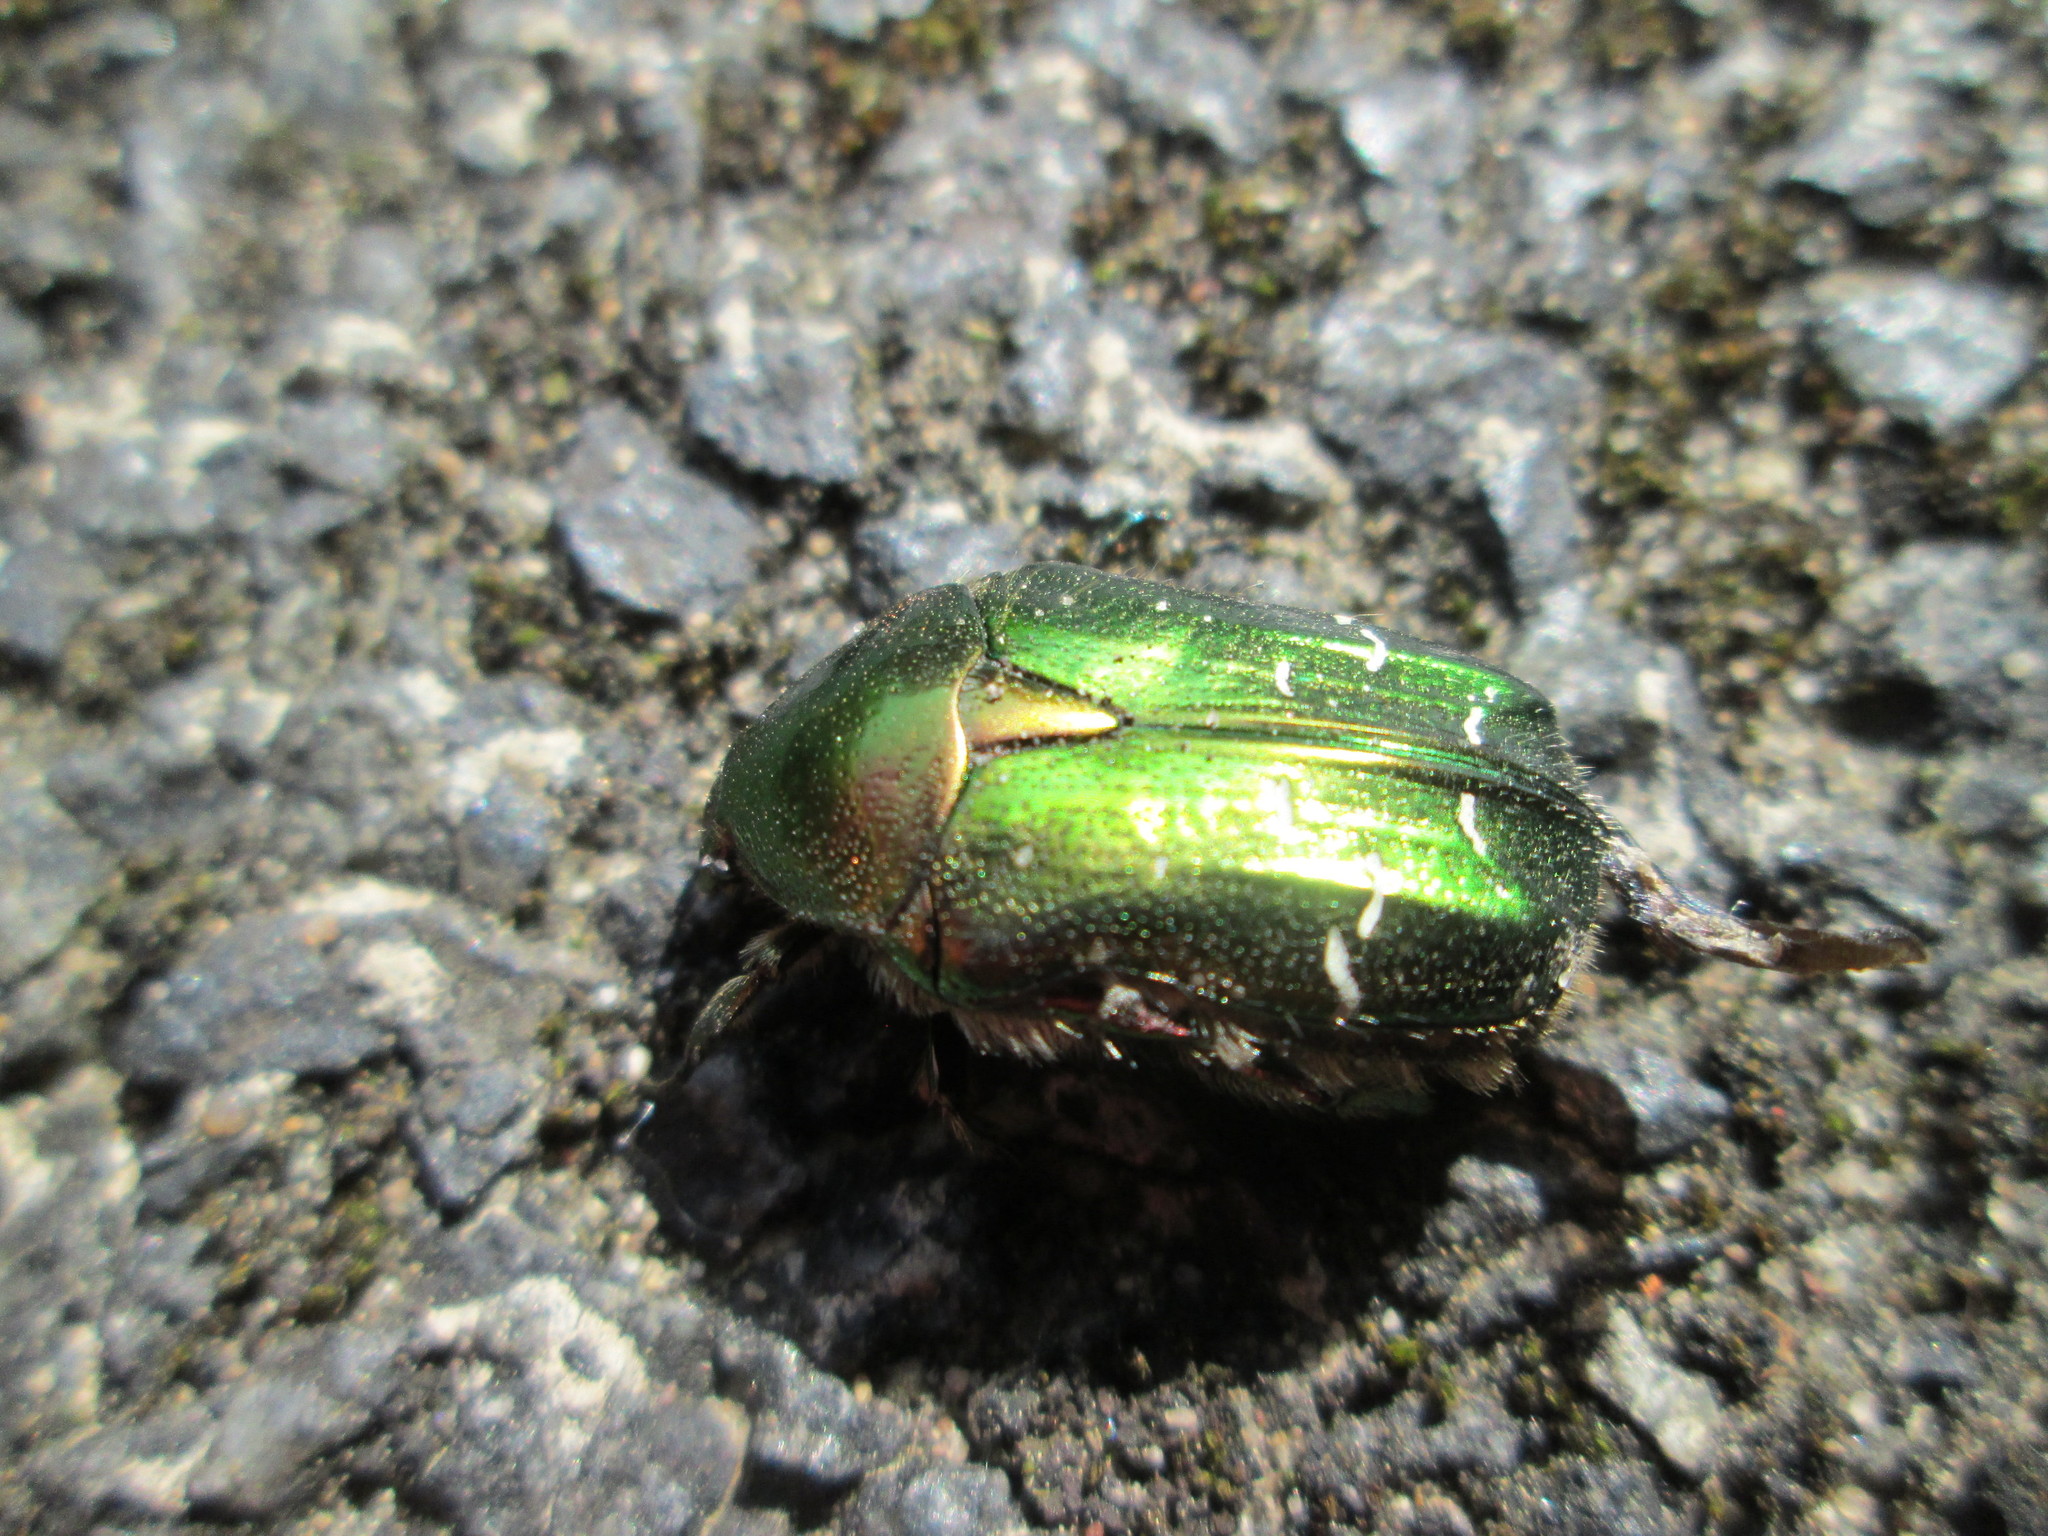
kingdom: Animalia
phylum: Arthropoda
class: Insecta
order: Coleoptera
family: Scarabaeidae
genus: Cetonia
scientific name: Cetonia aurata
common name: Rose chafer
